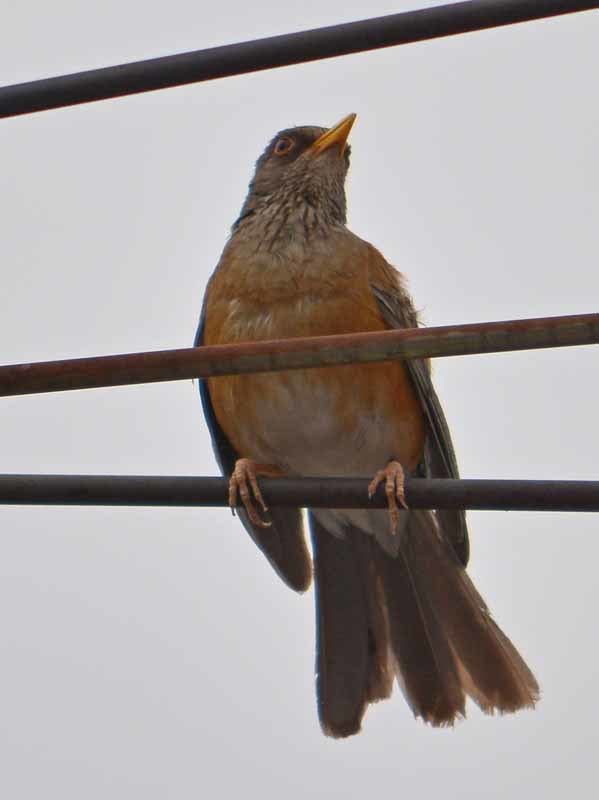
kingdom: Animalia
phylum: Chordata
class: Aves
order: Passeriformes
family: Turdidae
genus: Turdus
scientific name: Turdus rufopalliatus
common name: Rufous-backed robin
